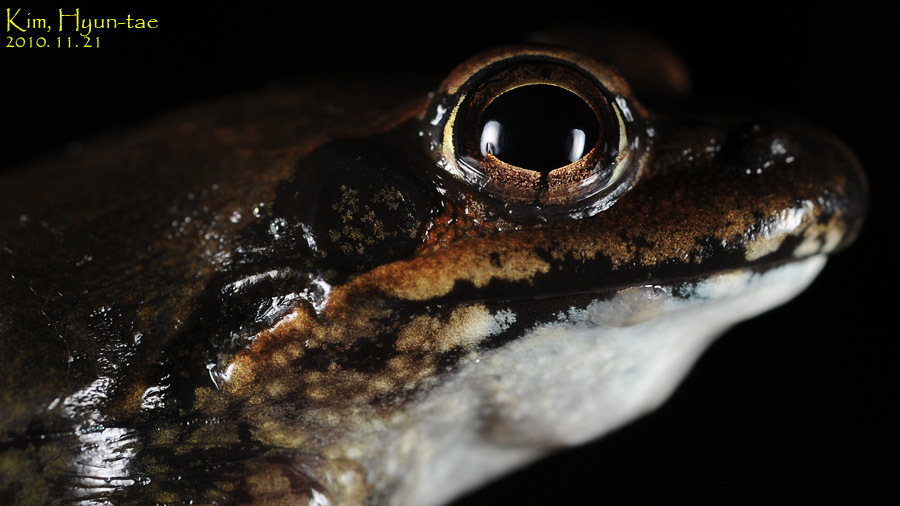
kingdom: Animalia
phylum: Chordata
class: Amphibia
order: Anura
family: Ranidae
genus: Rana
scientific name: Rana uenoi
